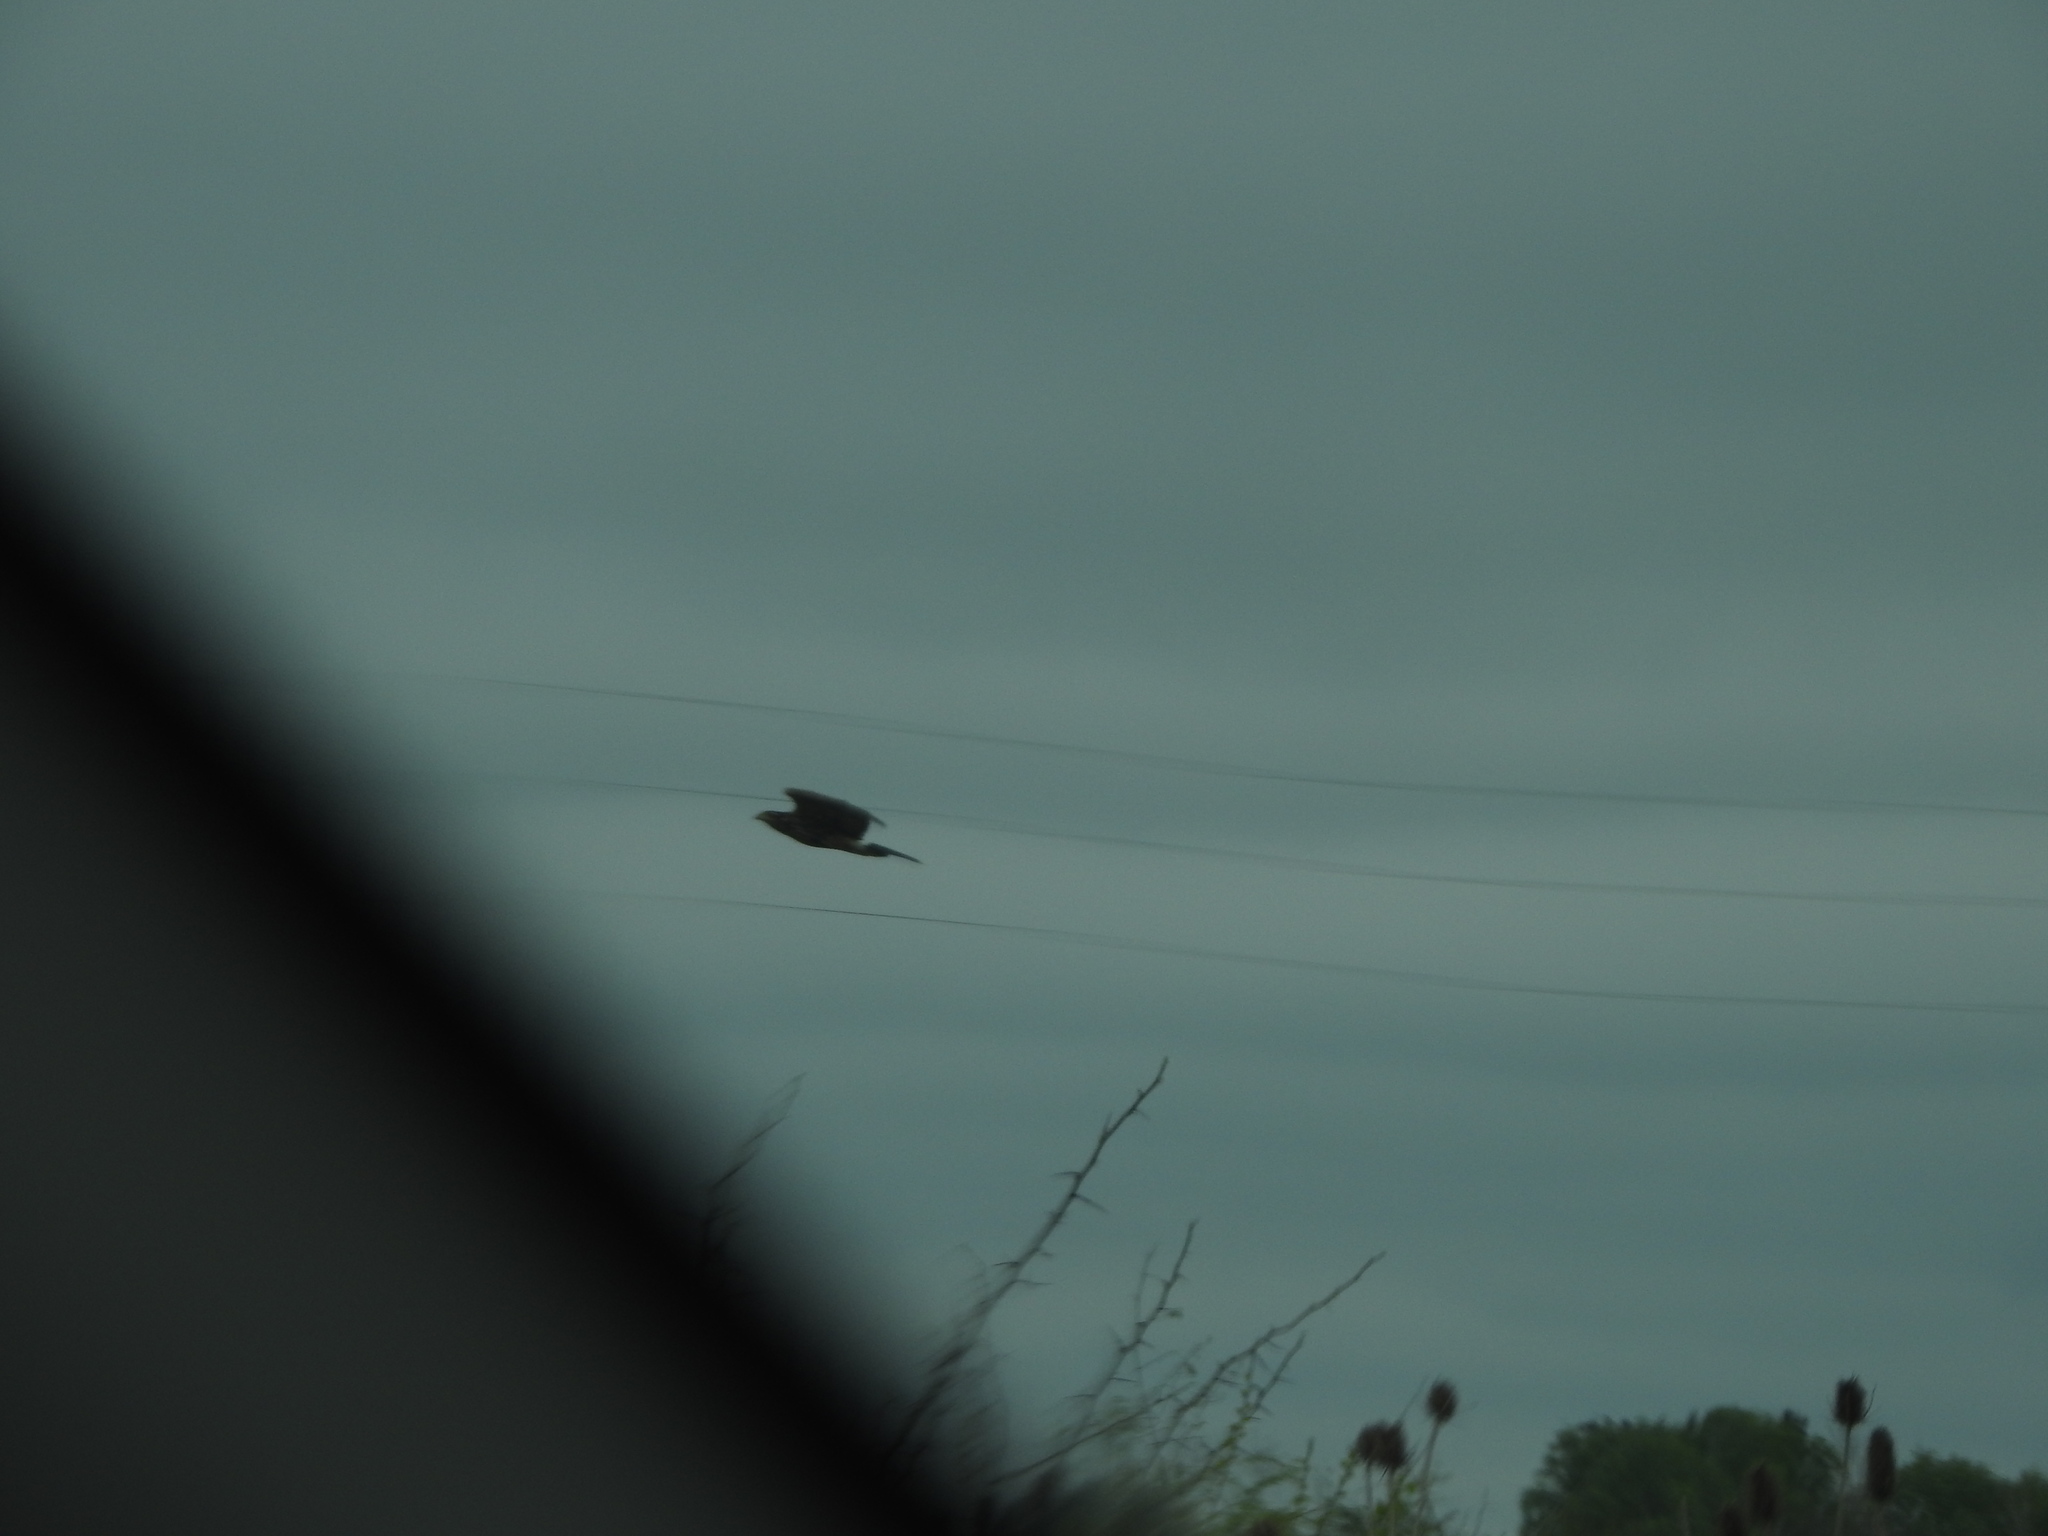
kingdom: Animalia
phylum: Chordata
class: Aves
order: Accipitriformes
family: Accipitridae
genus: Parabuteo
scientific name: Parabuteo unicinctus
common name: Harris's hawk
